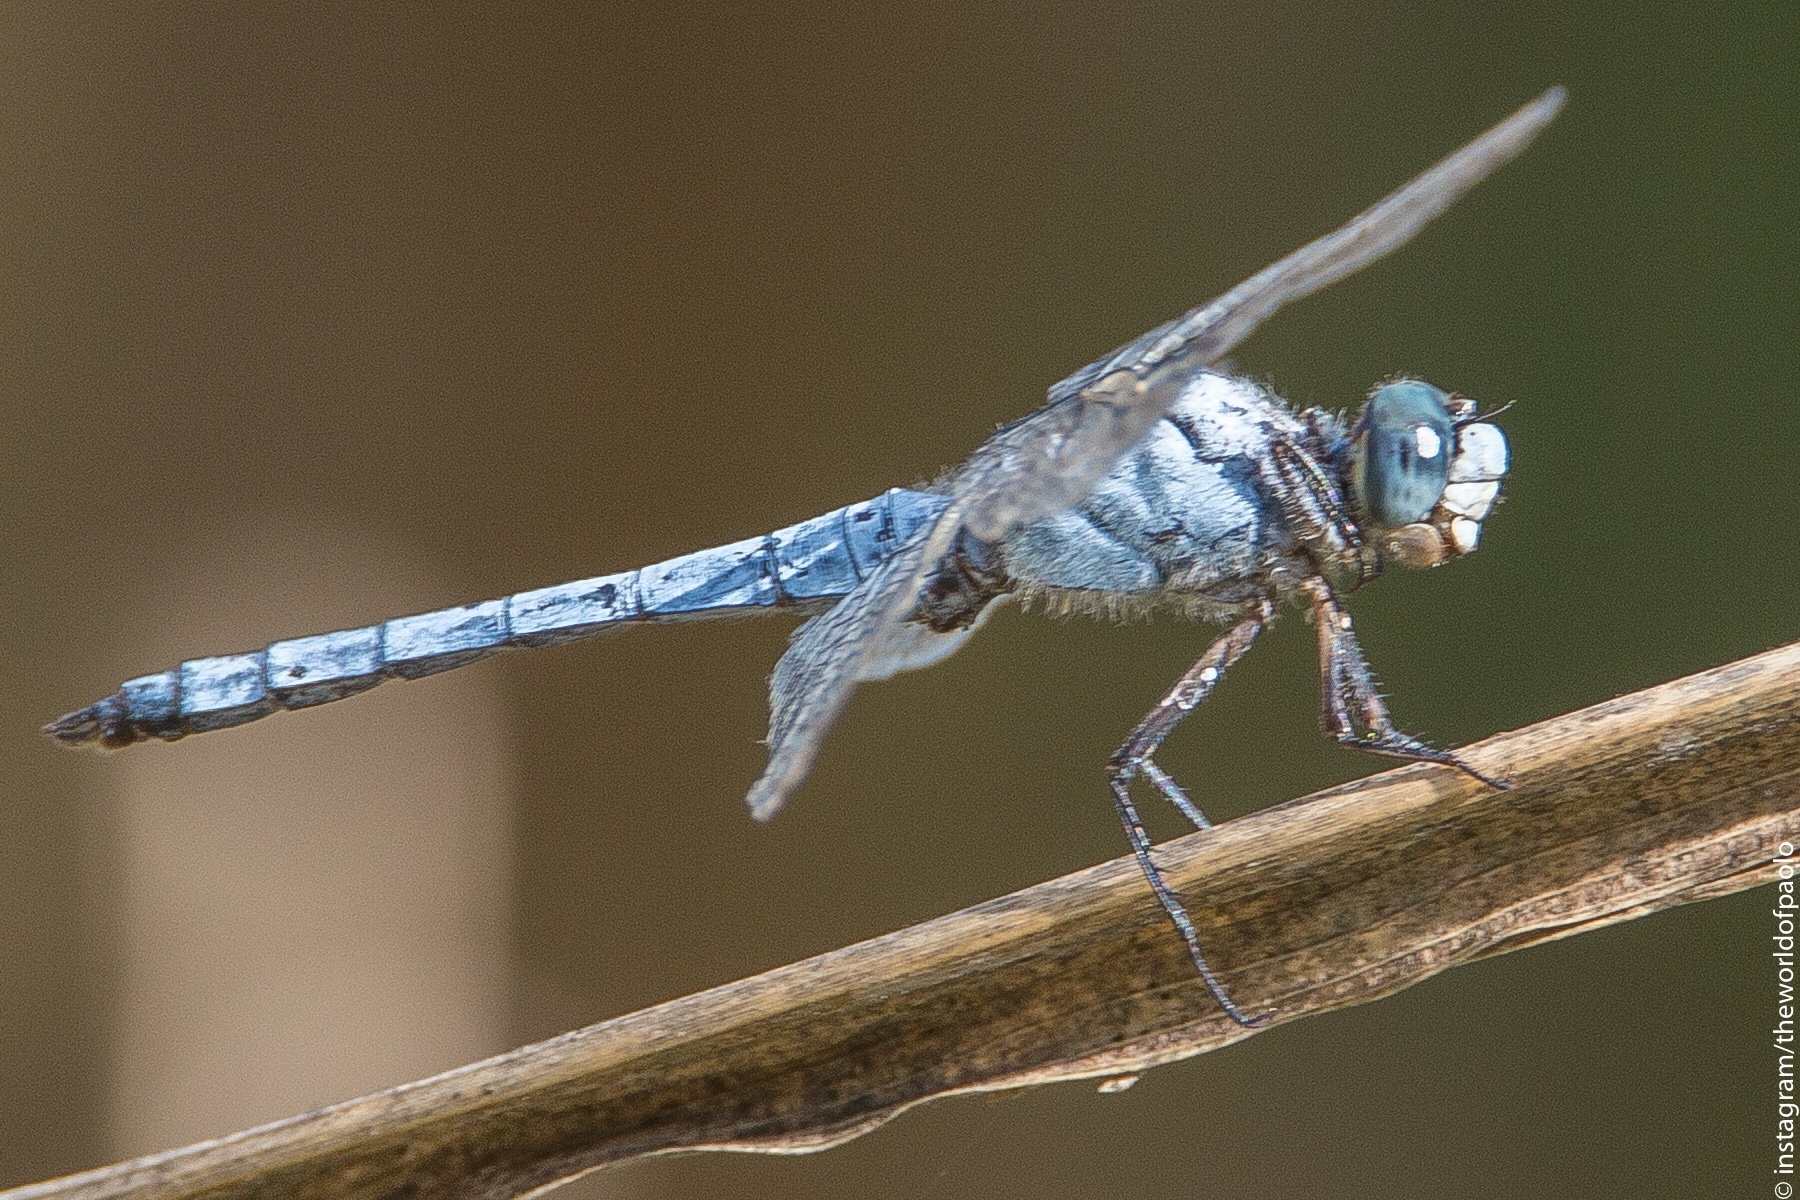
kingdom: Animalia
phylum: Arthropoda
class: Insecta
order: Odonata
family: Libellulidae
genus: Orthetrum
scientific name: Orthetrum brunneum
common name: Southern skimmer
